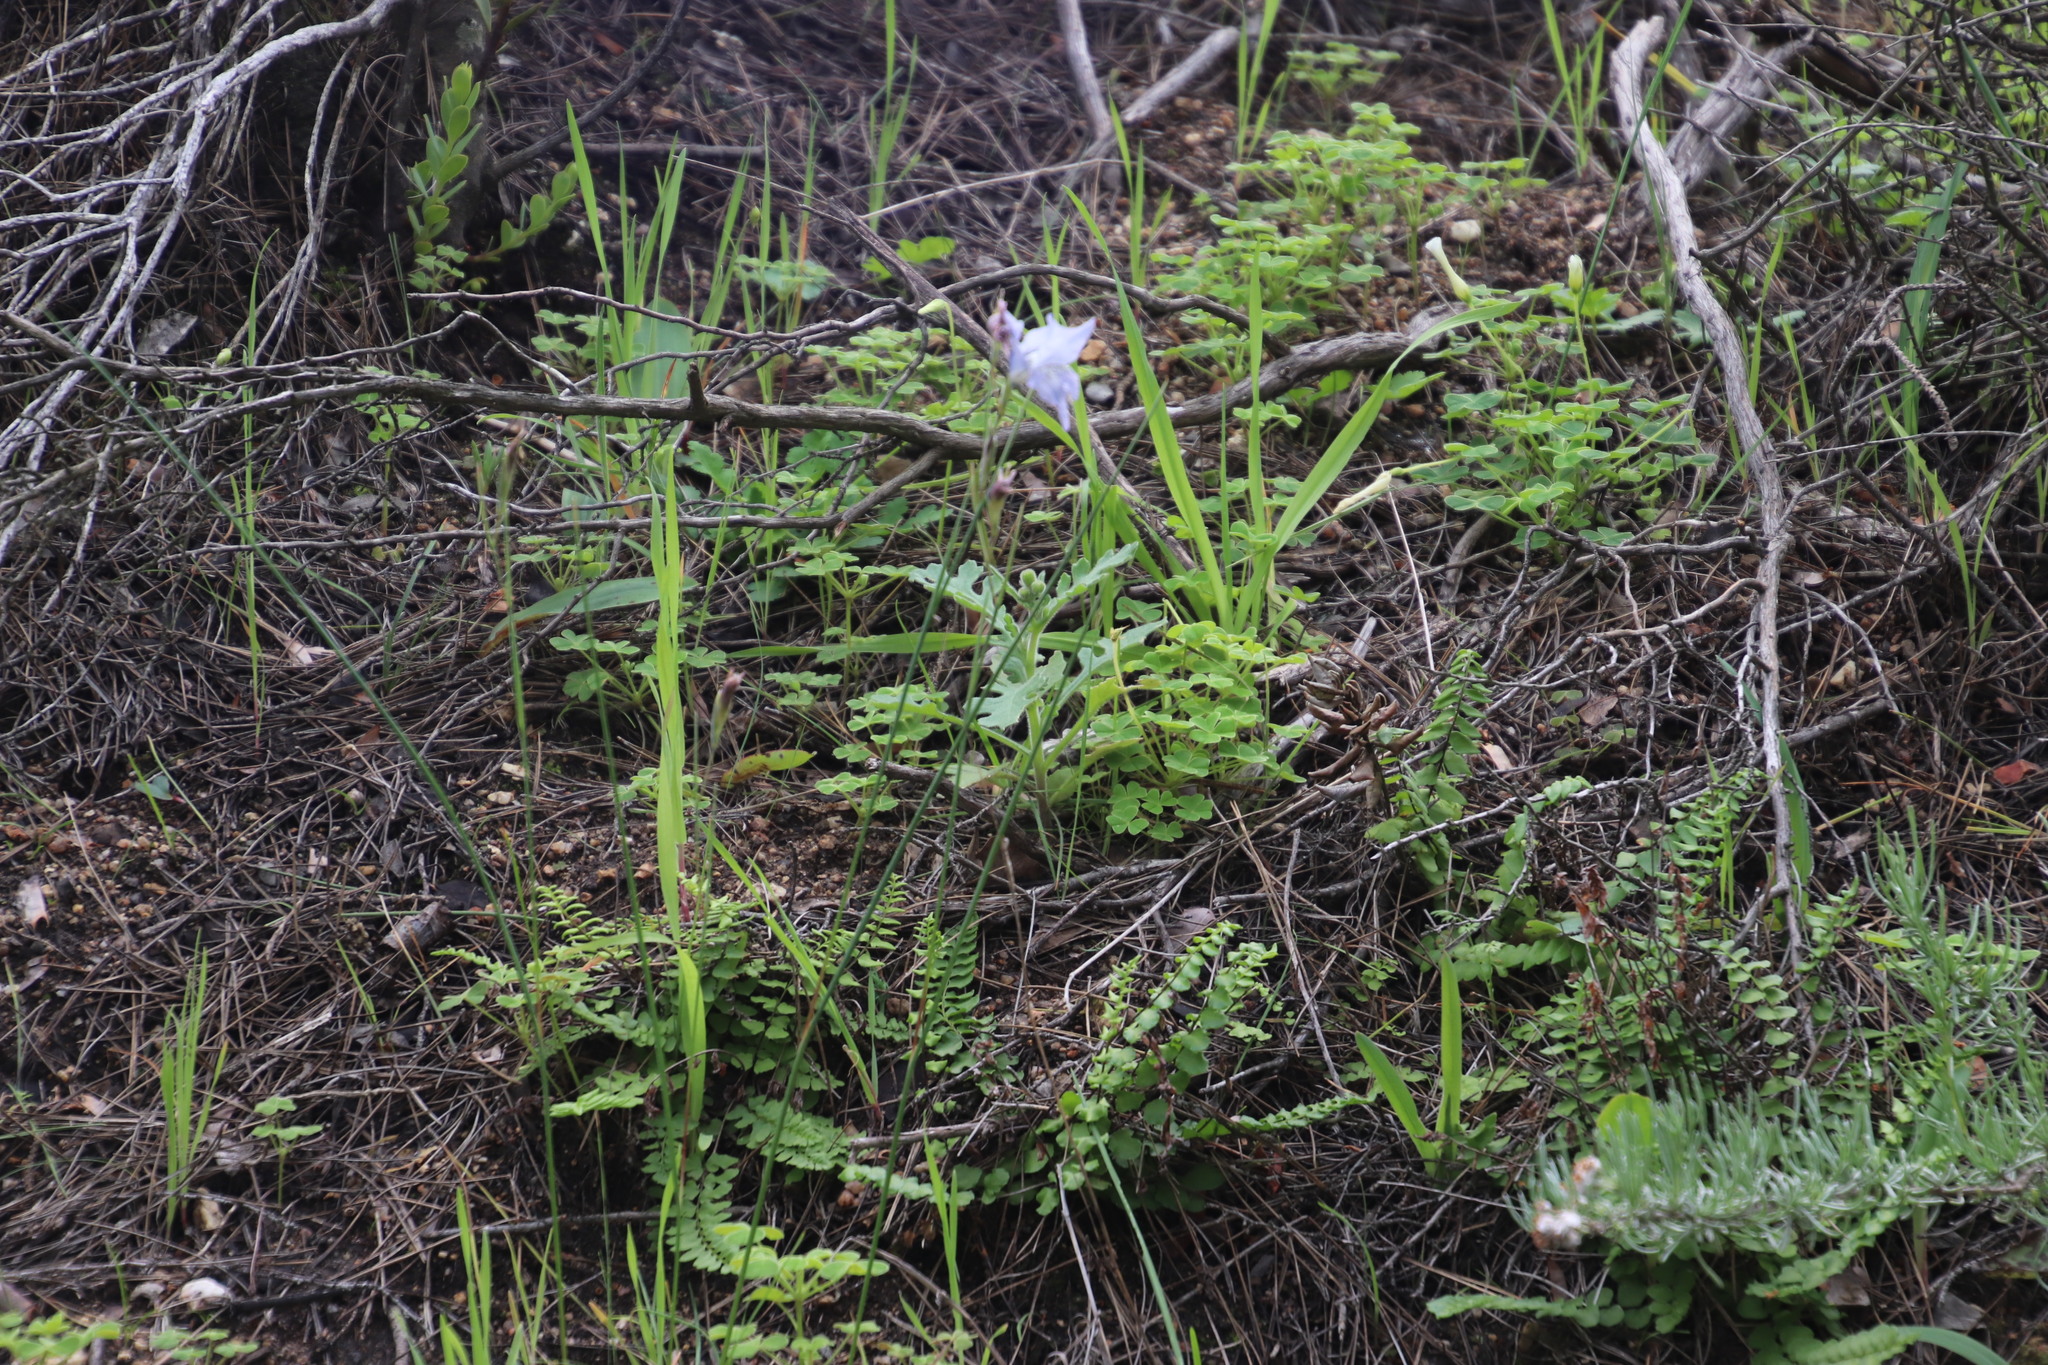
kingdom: Plantae
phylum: Tracheophyta
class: Liliopsida
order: Asparagales
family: Iridaceae
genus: Gladiolus
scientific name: Gladiolus gracilis
